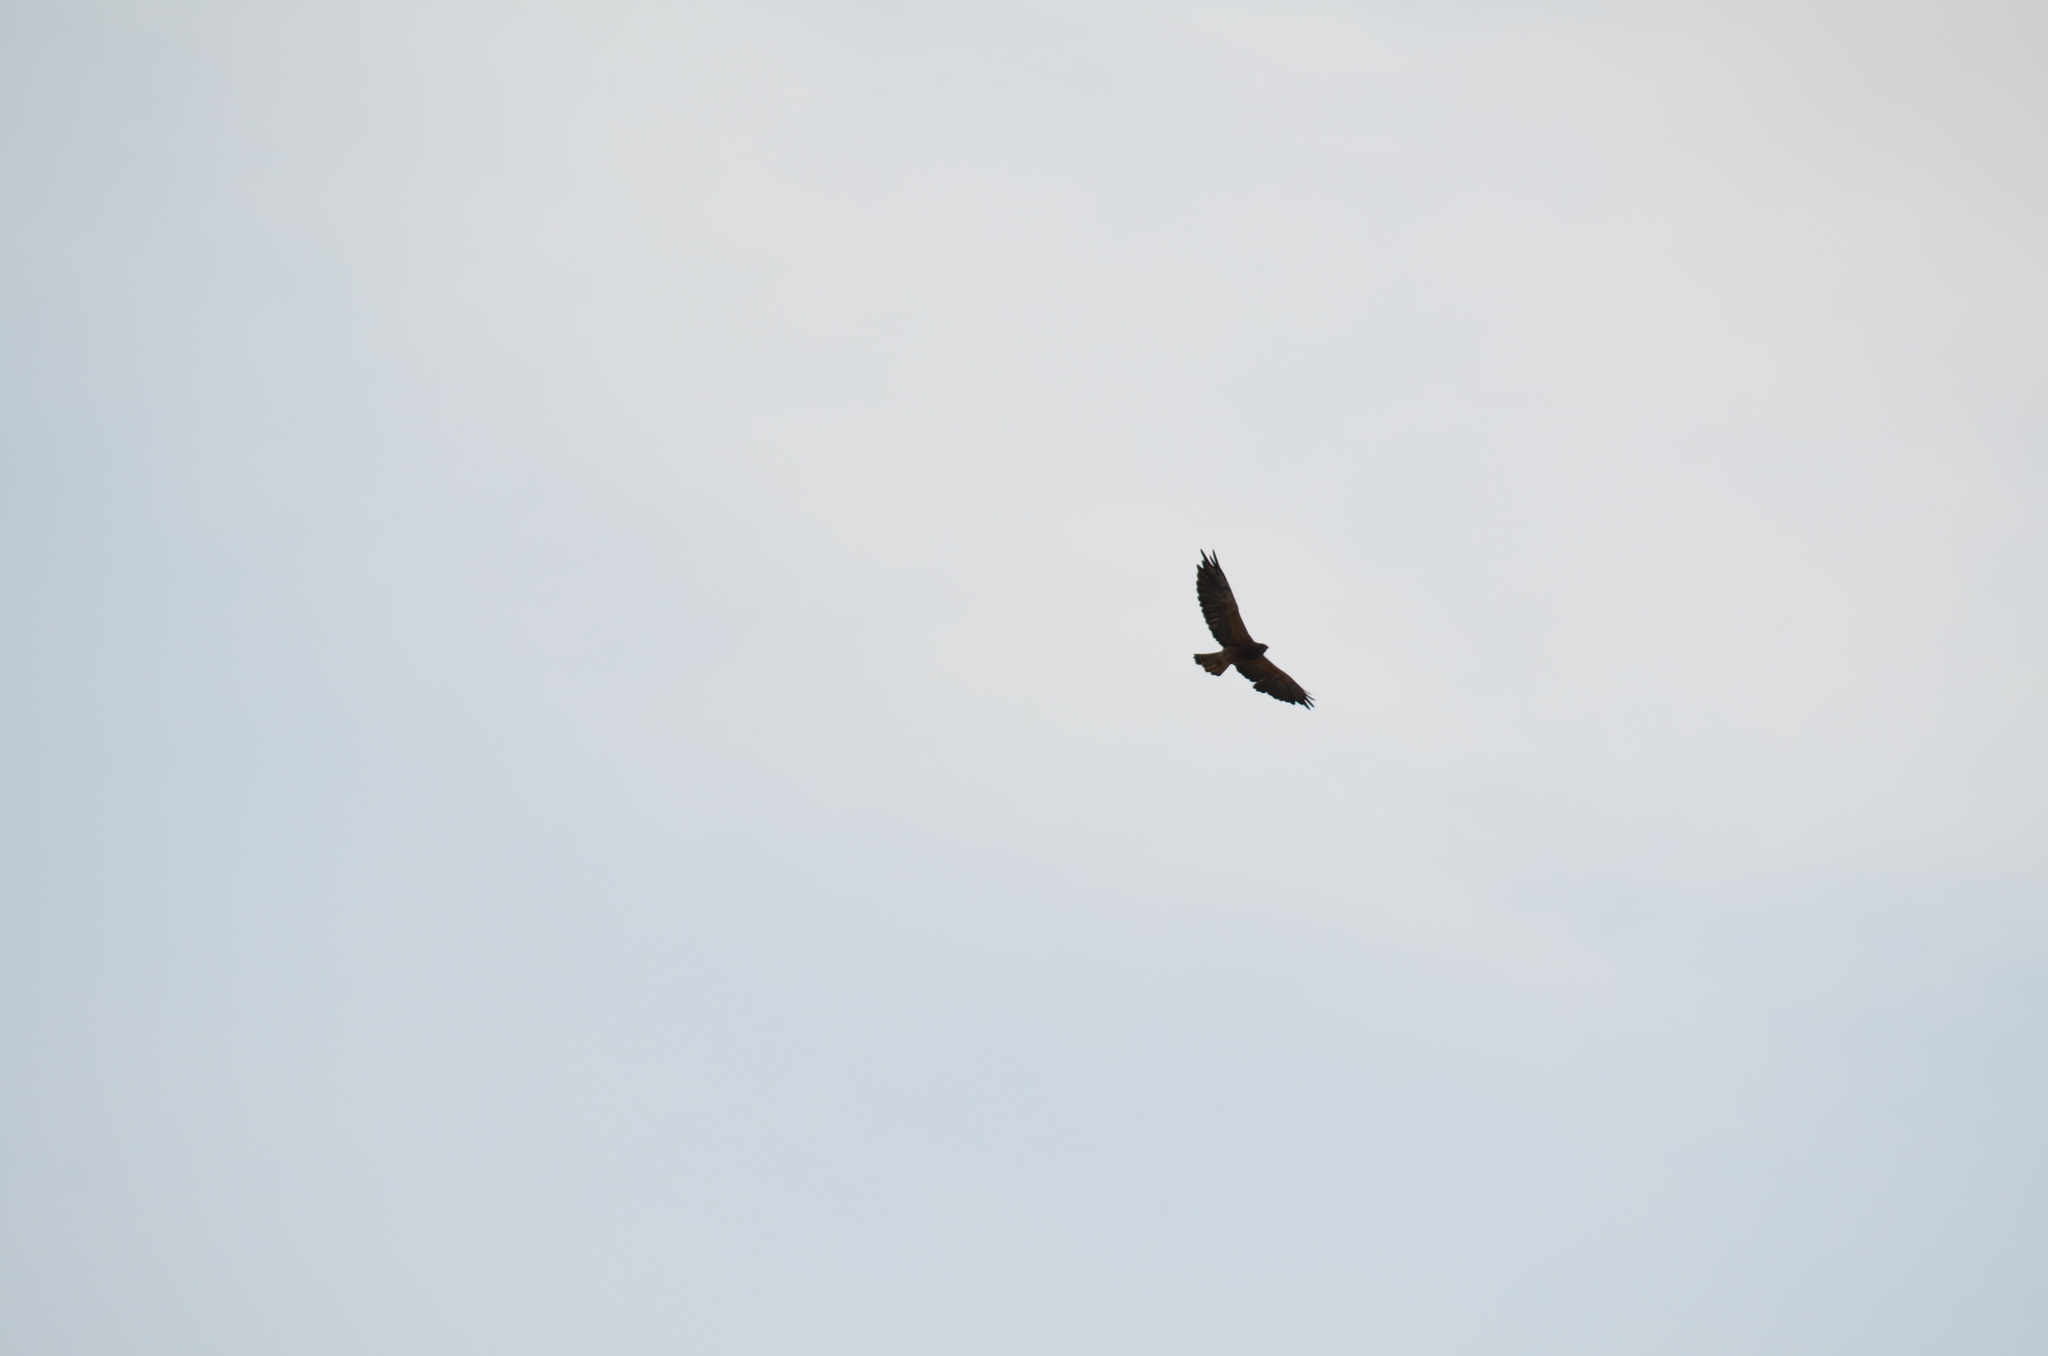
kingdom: Animalia
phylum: Chordata
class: Aves
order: Accipitriformes
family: Accipitridae
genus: Buteo
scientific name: Buteo swainsoni
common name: Swainson's hawk
